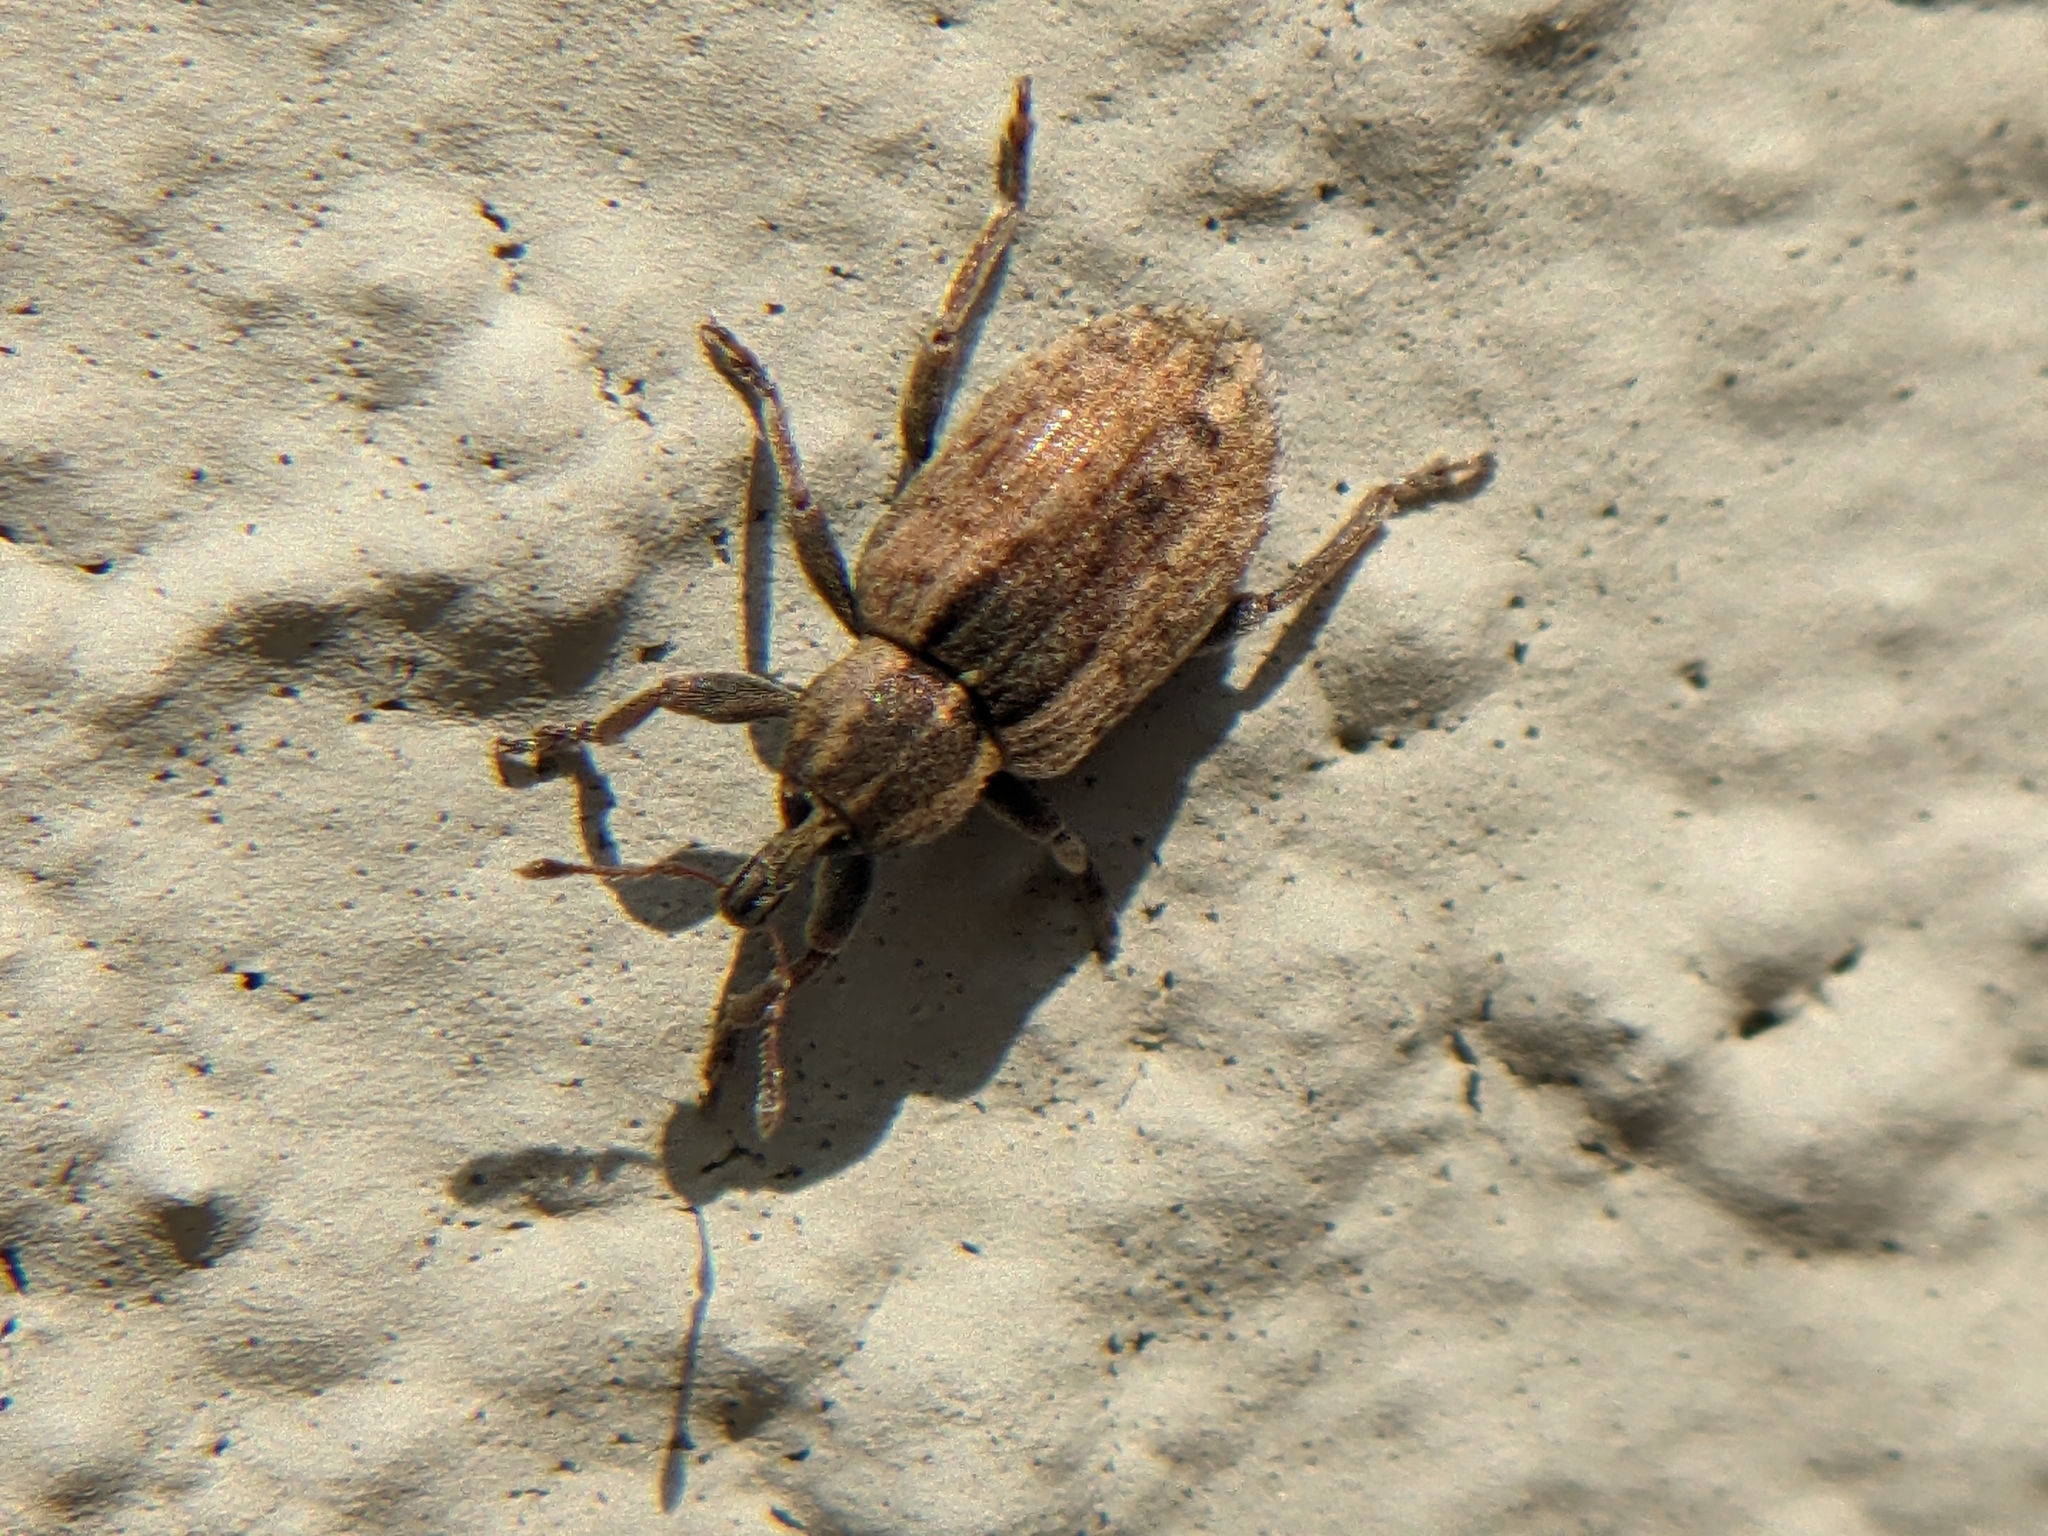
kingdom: Animalia
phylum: Arthropoda
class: Insecta
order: Coleoptera
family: Curculionidae
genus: Hypera
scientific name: Hypera postica
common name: Weevil
